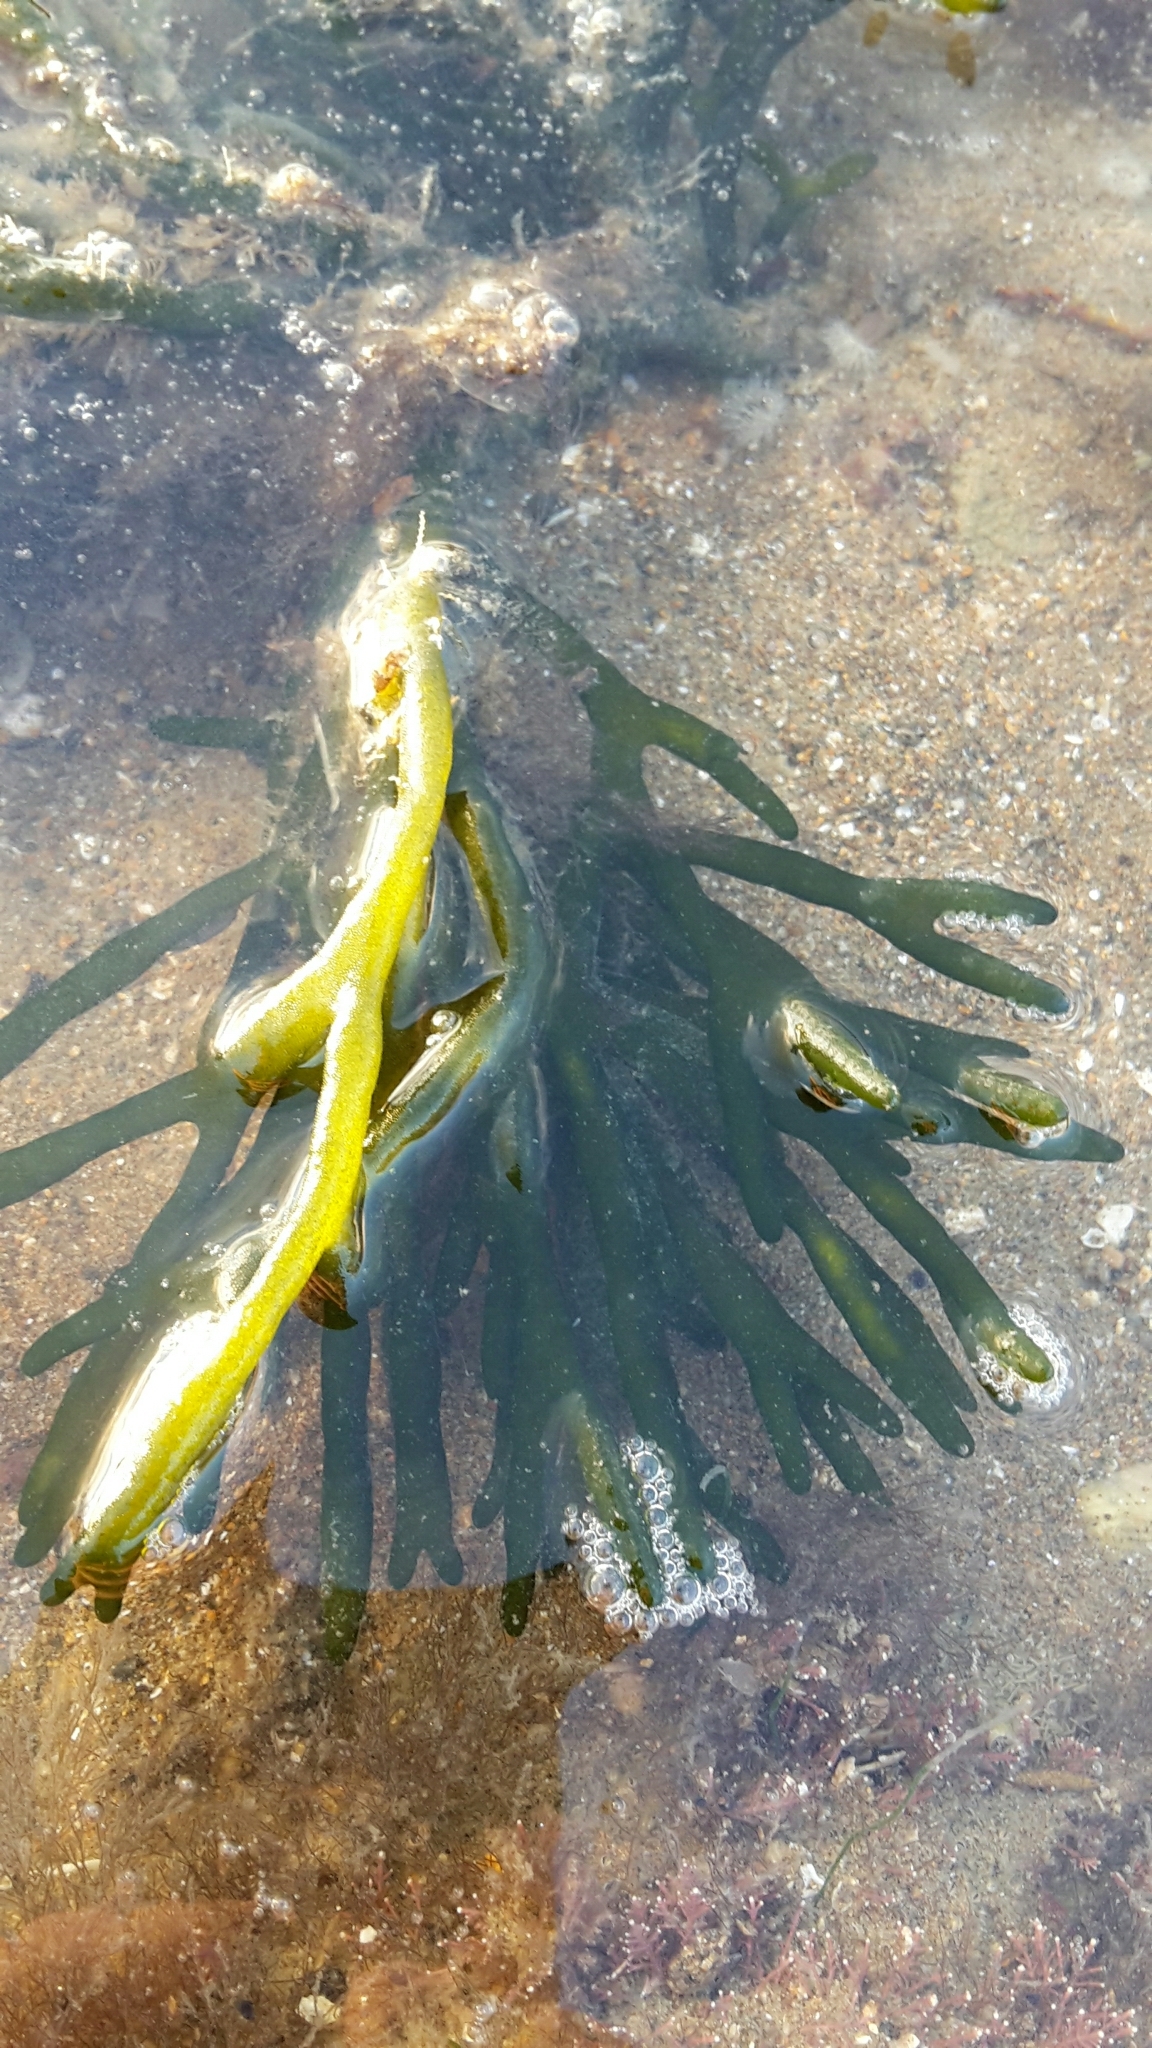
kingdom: Plantae
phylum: Chlorophyta
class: Ulvophyceae
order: Bryopsidales
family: Codiaceae
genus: Codium
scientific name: Codium fragile
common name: Dead man's fingers
